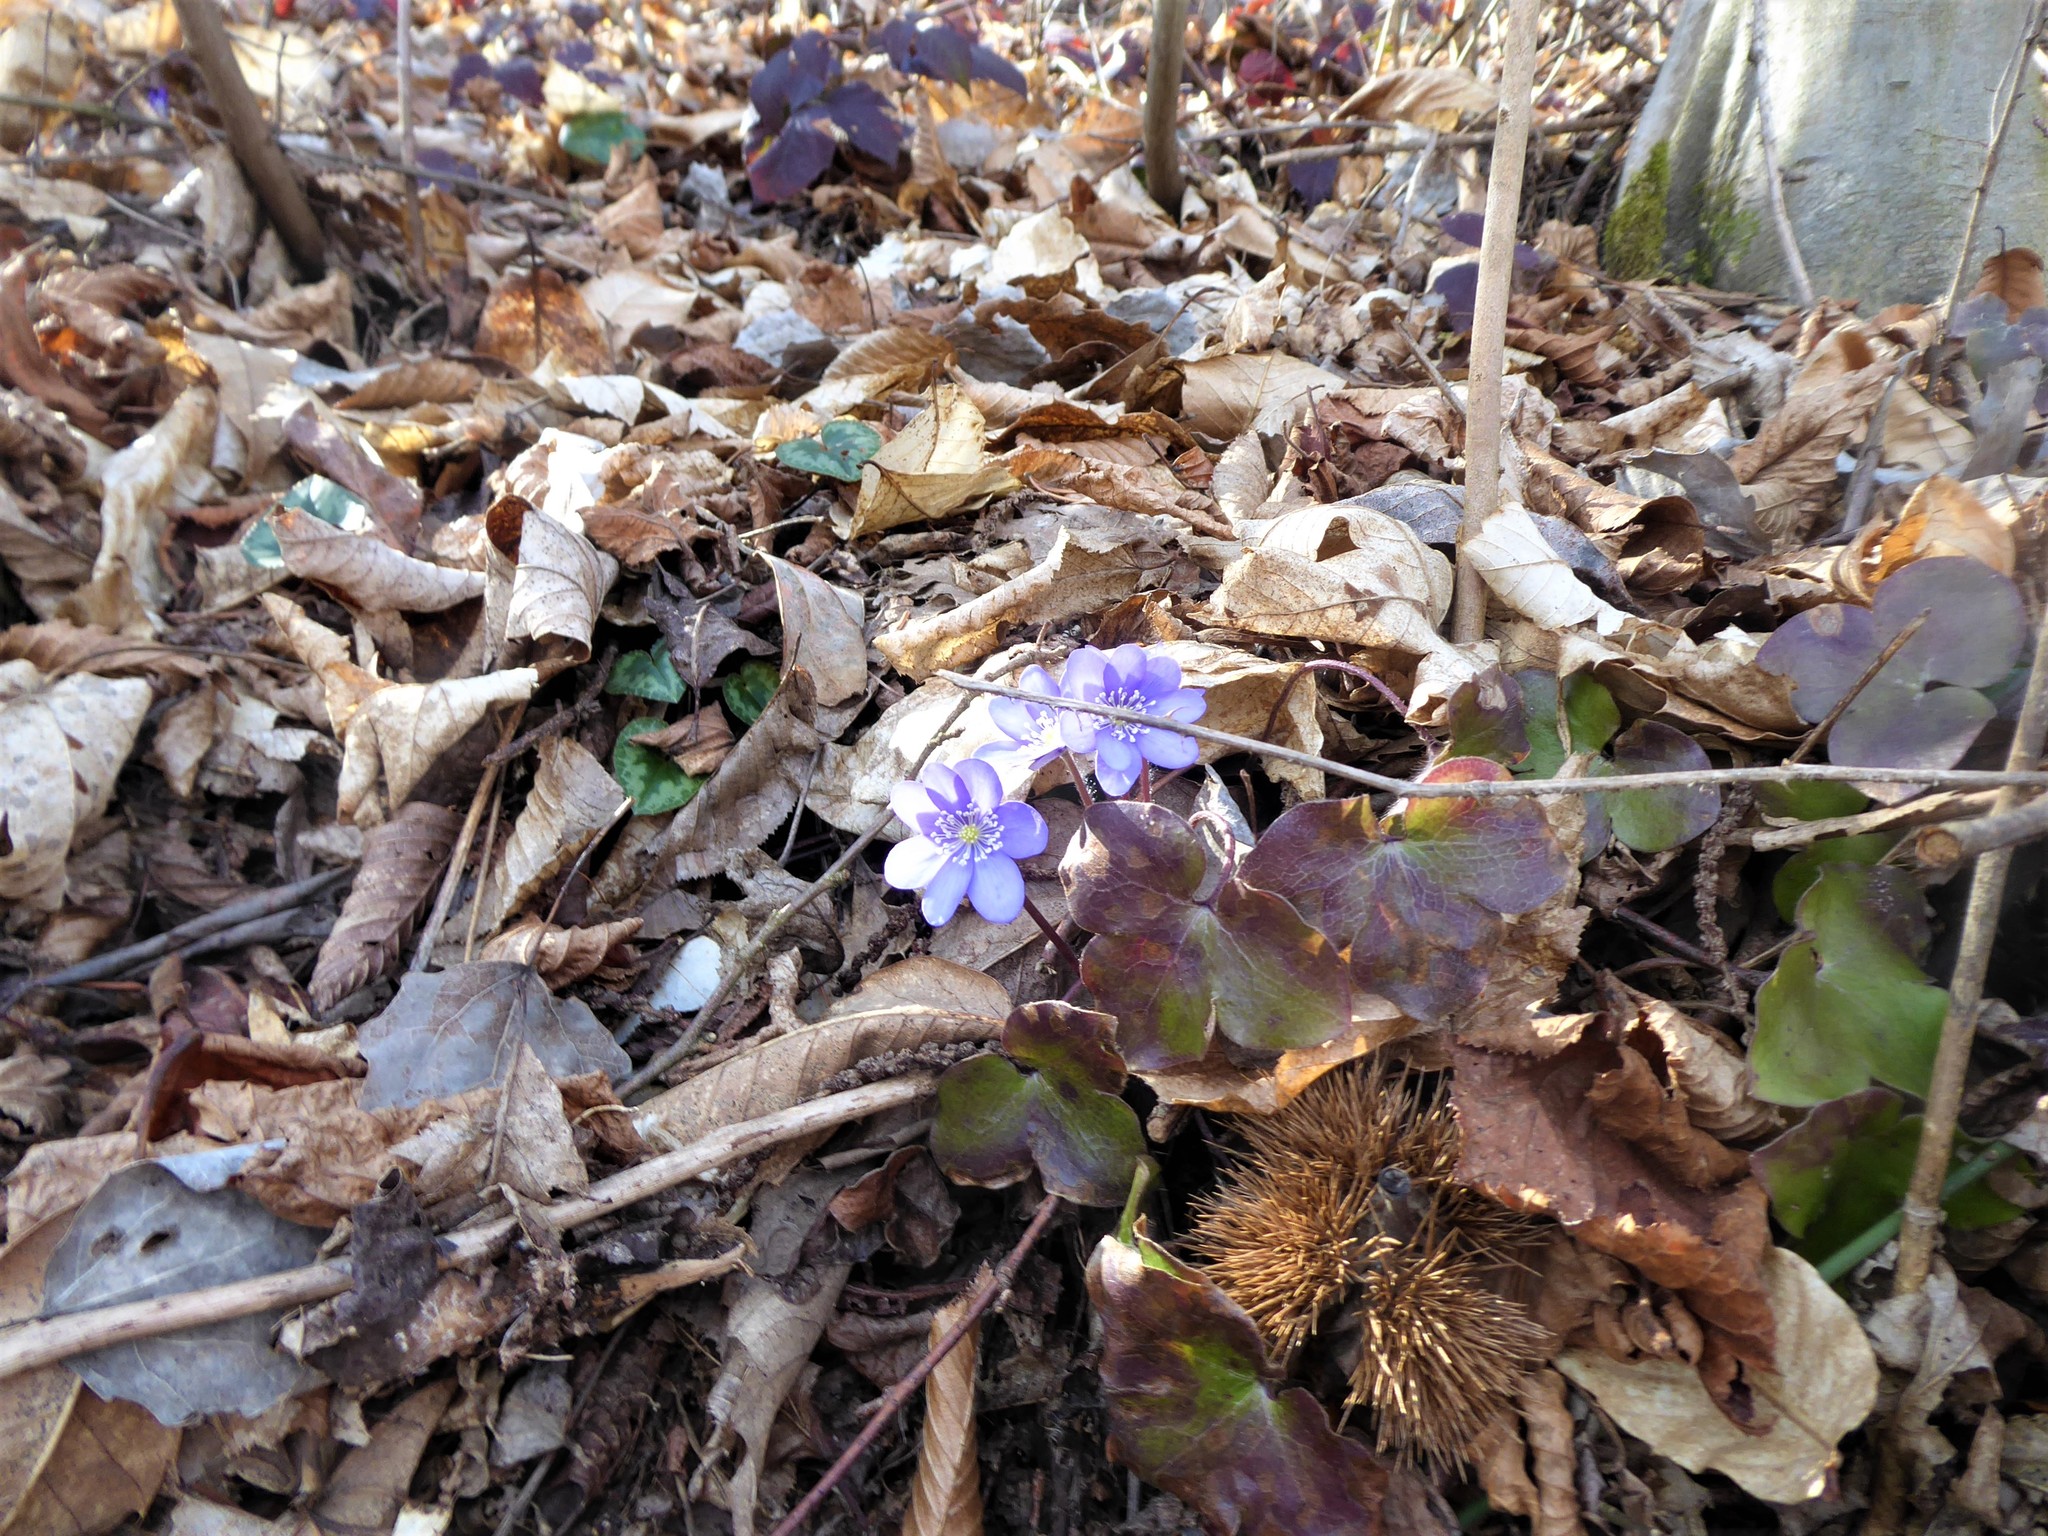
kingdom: Plantae
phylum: Tracheophyta
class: Magnoliopsida
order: Ranunculales
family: Ranunculaceae
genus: Hepatica
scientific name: Hepatica nobilis
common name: Liverleaf
